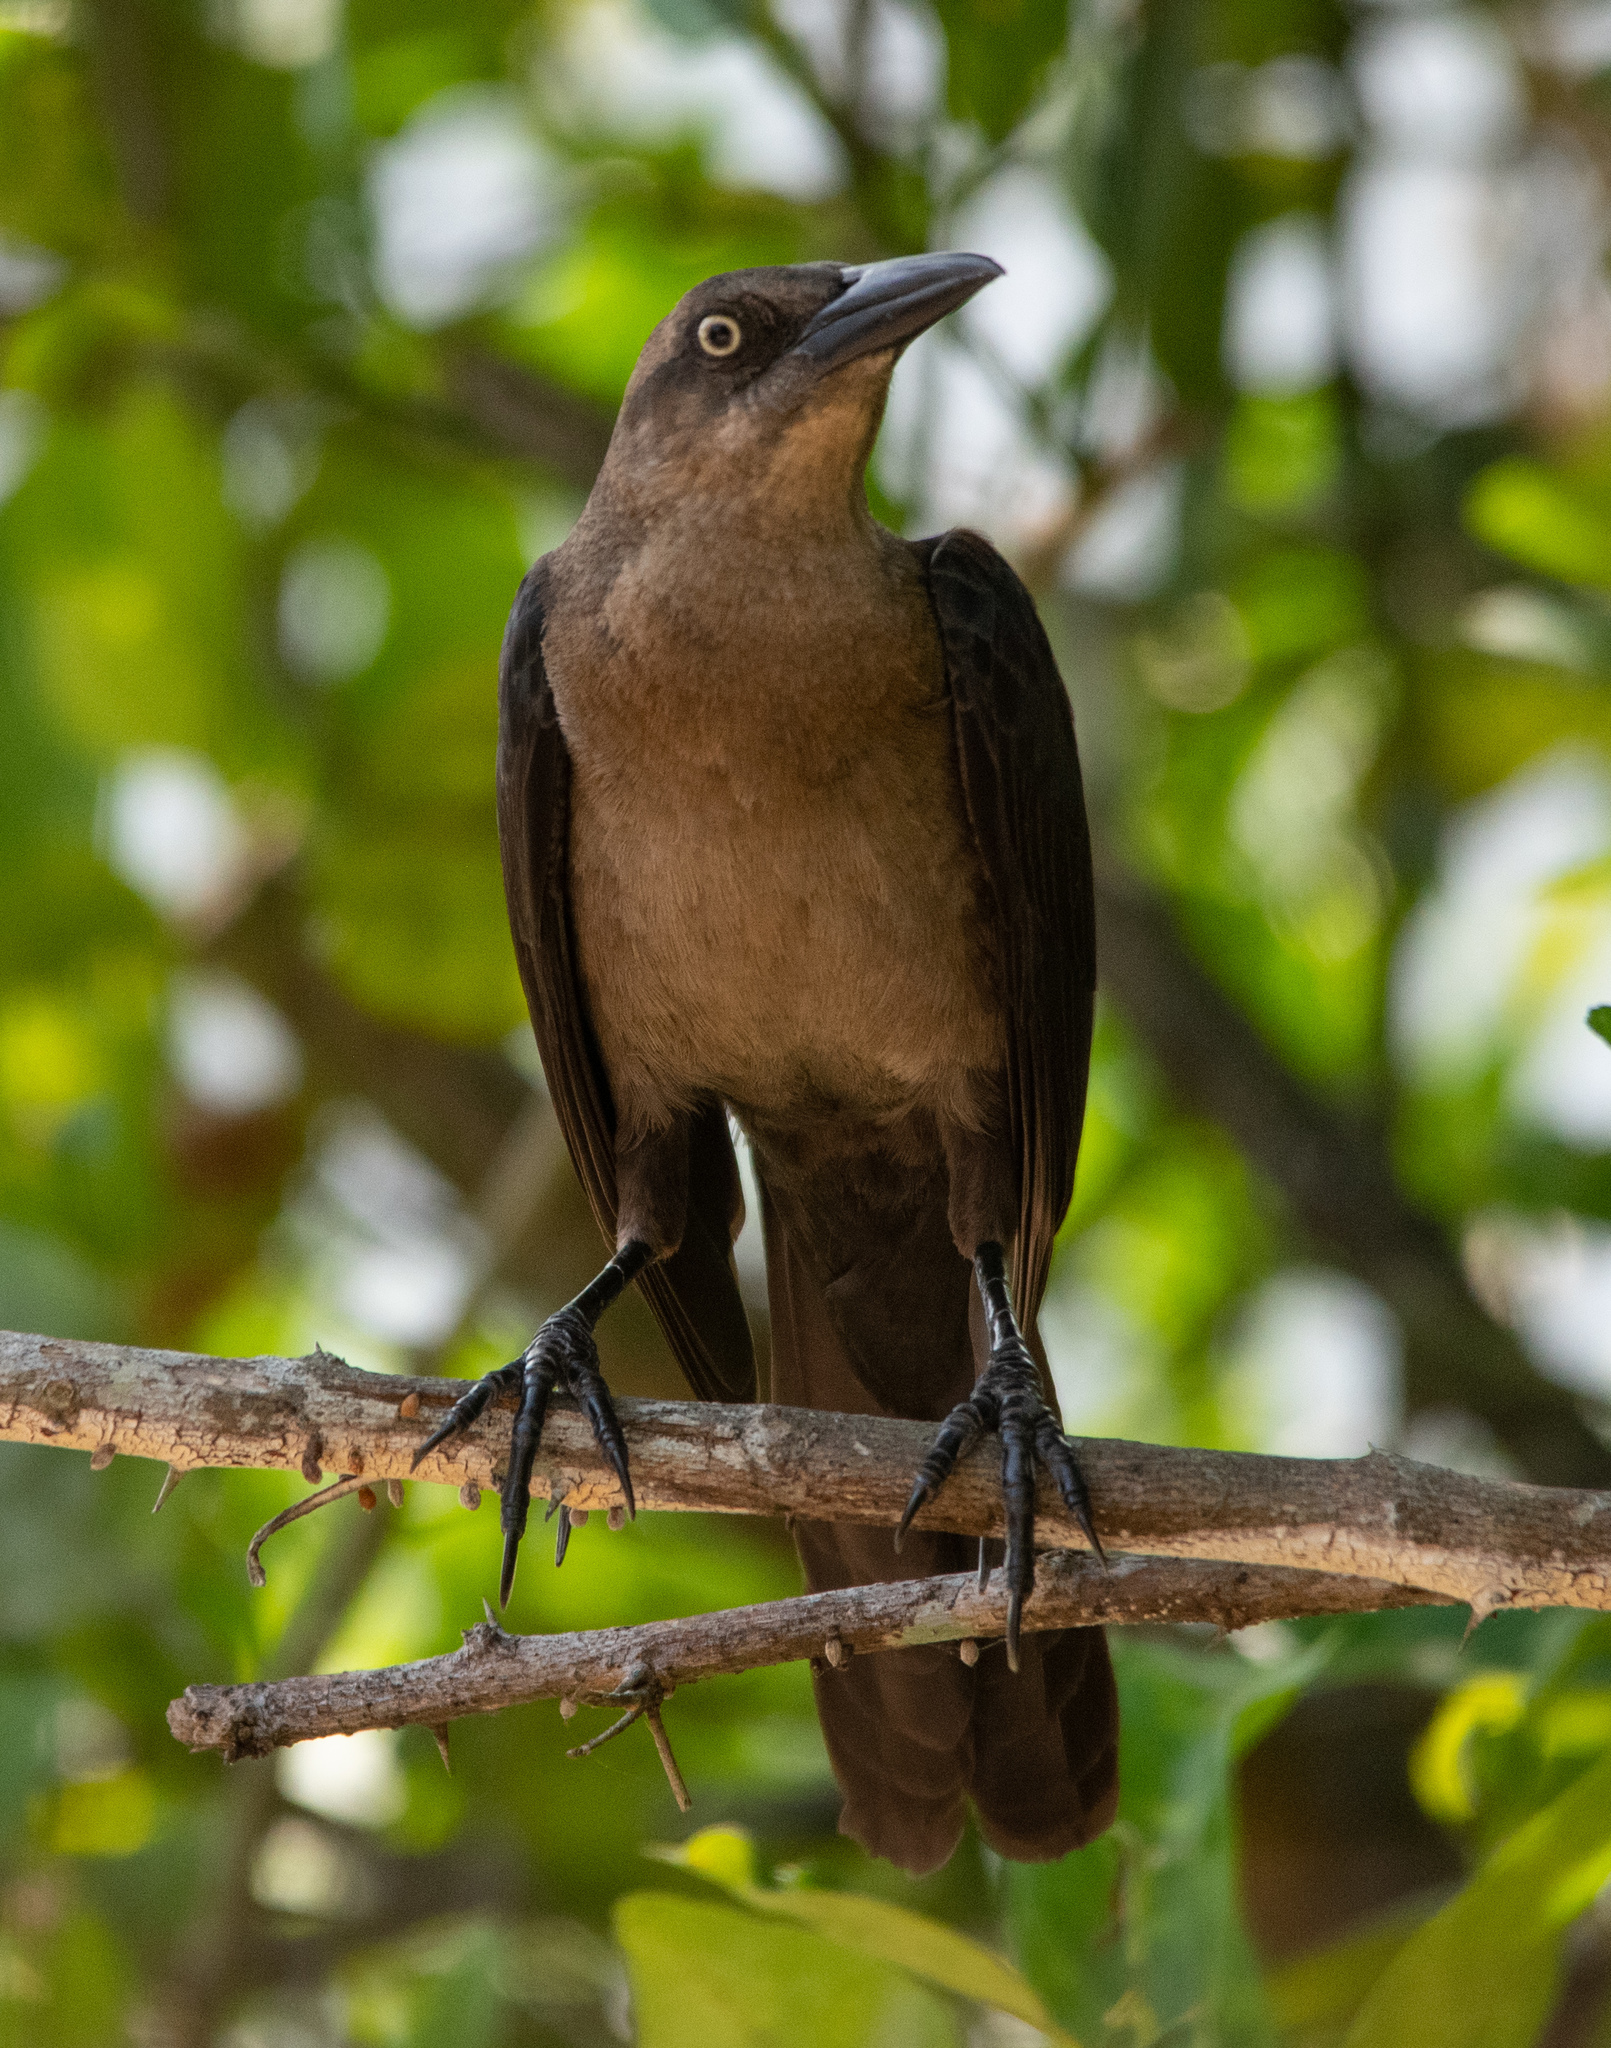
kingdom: Animalia
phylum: Chordata
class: Aves
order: Passeriformes
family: Icteridae
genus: Quiscalus
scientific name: Quiscalus mexicanus
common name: Great-tailed grackle
